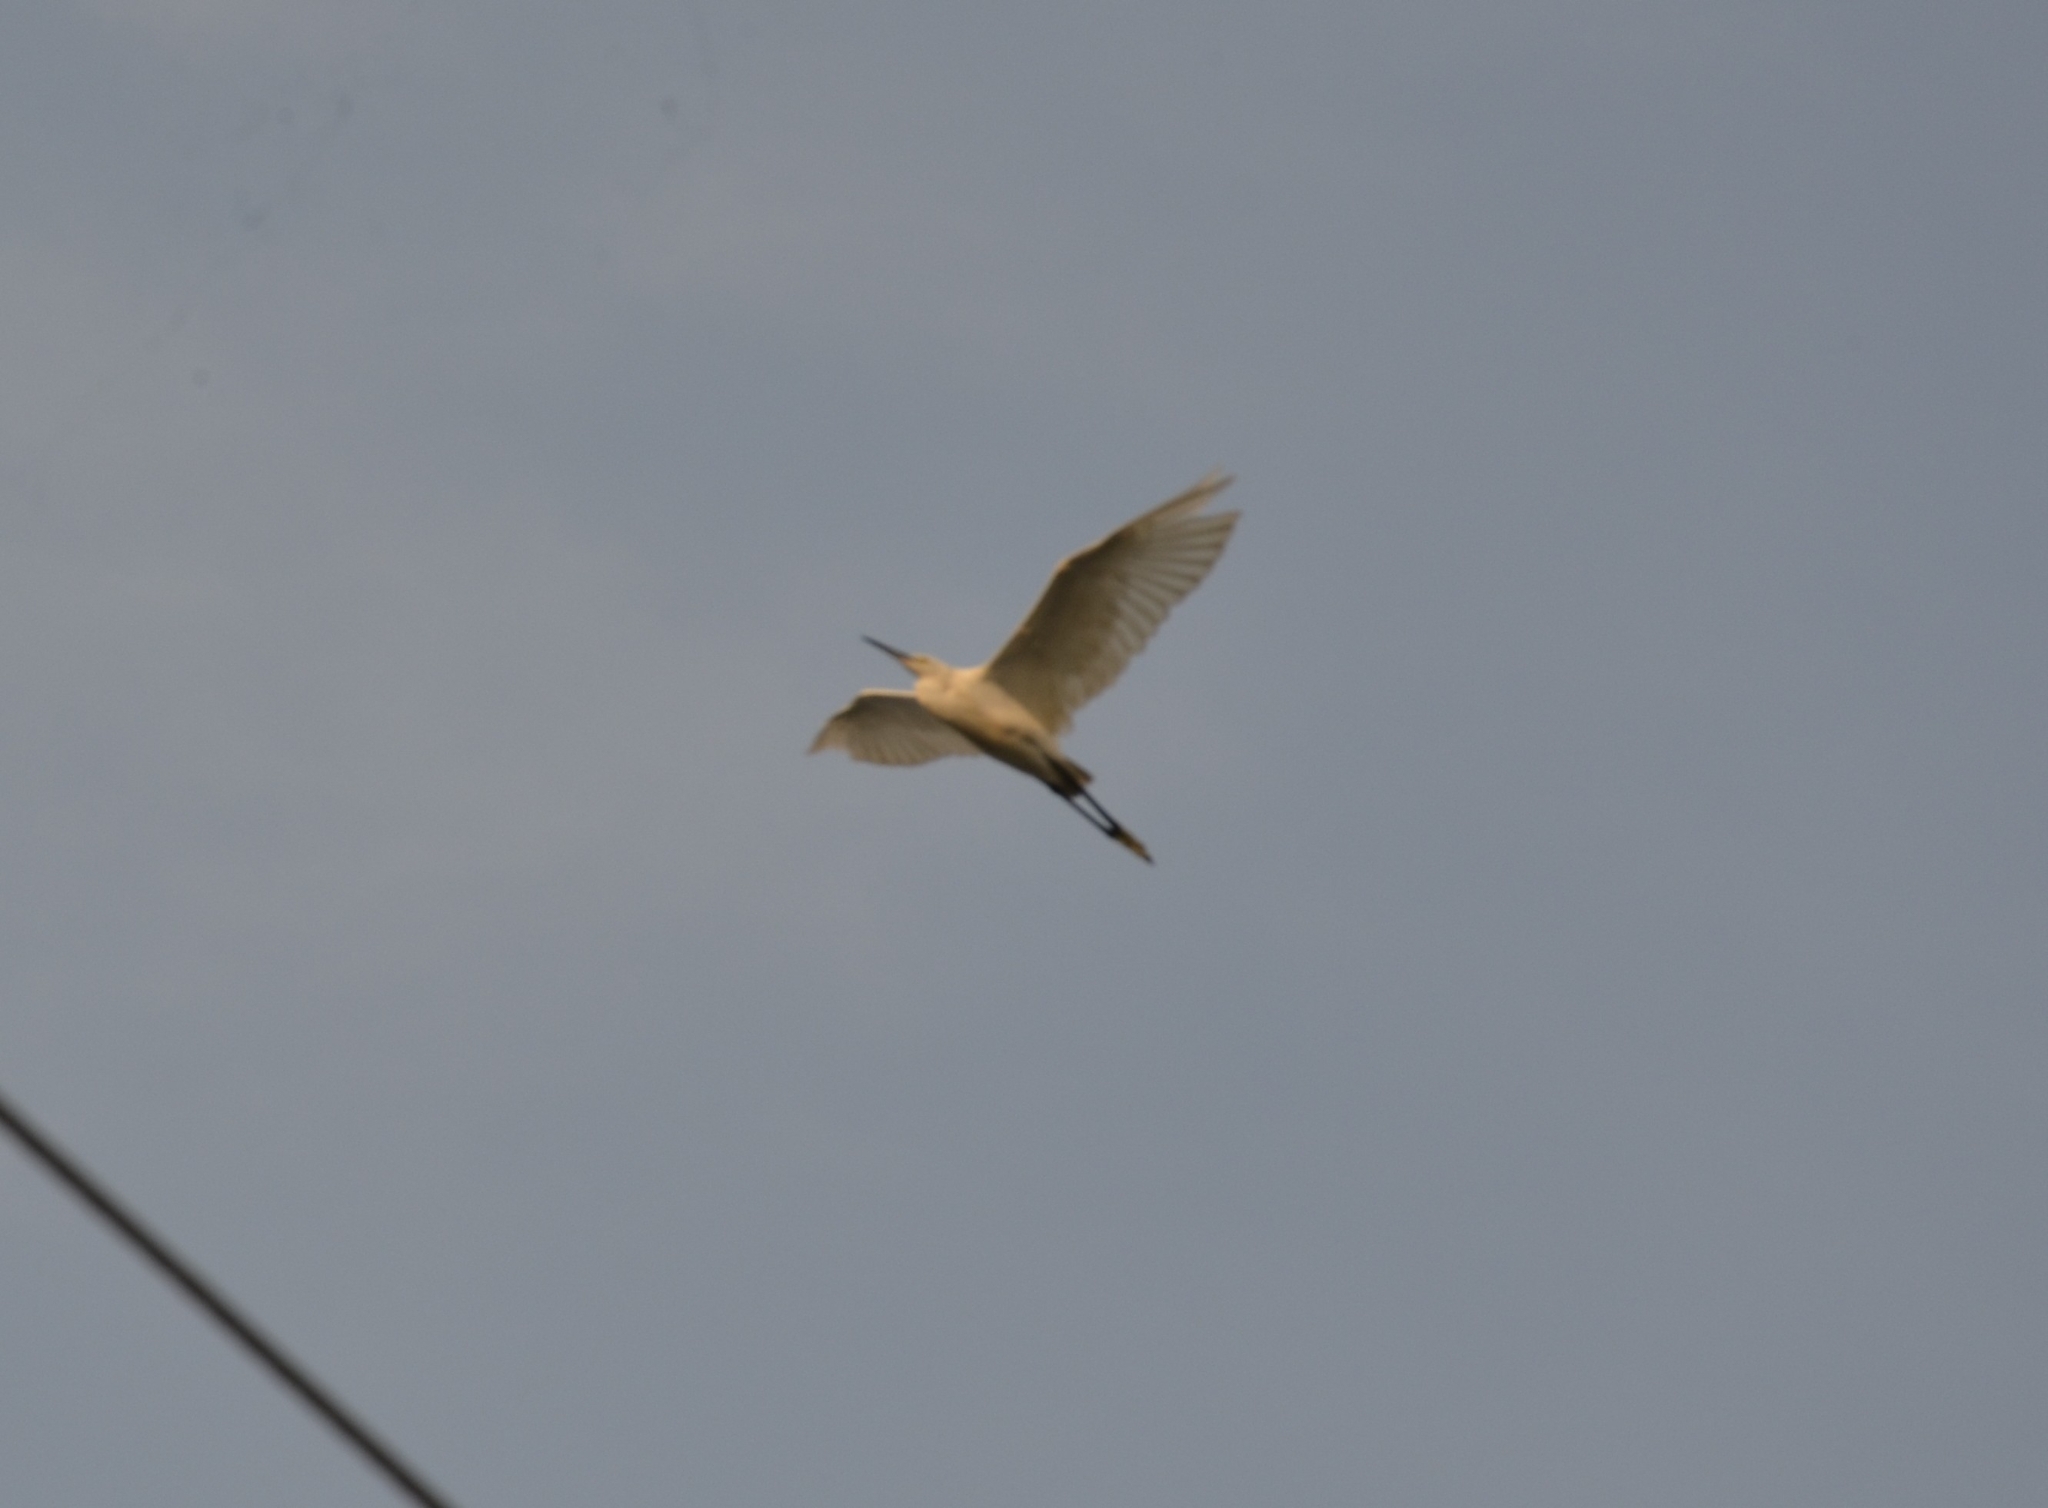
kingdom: Animalia
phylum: Chordata
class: Aves
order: Pelecaniformes
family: Ardeidae
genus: Egretta
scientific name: Egretta garzetta
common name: Little egret
